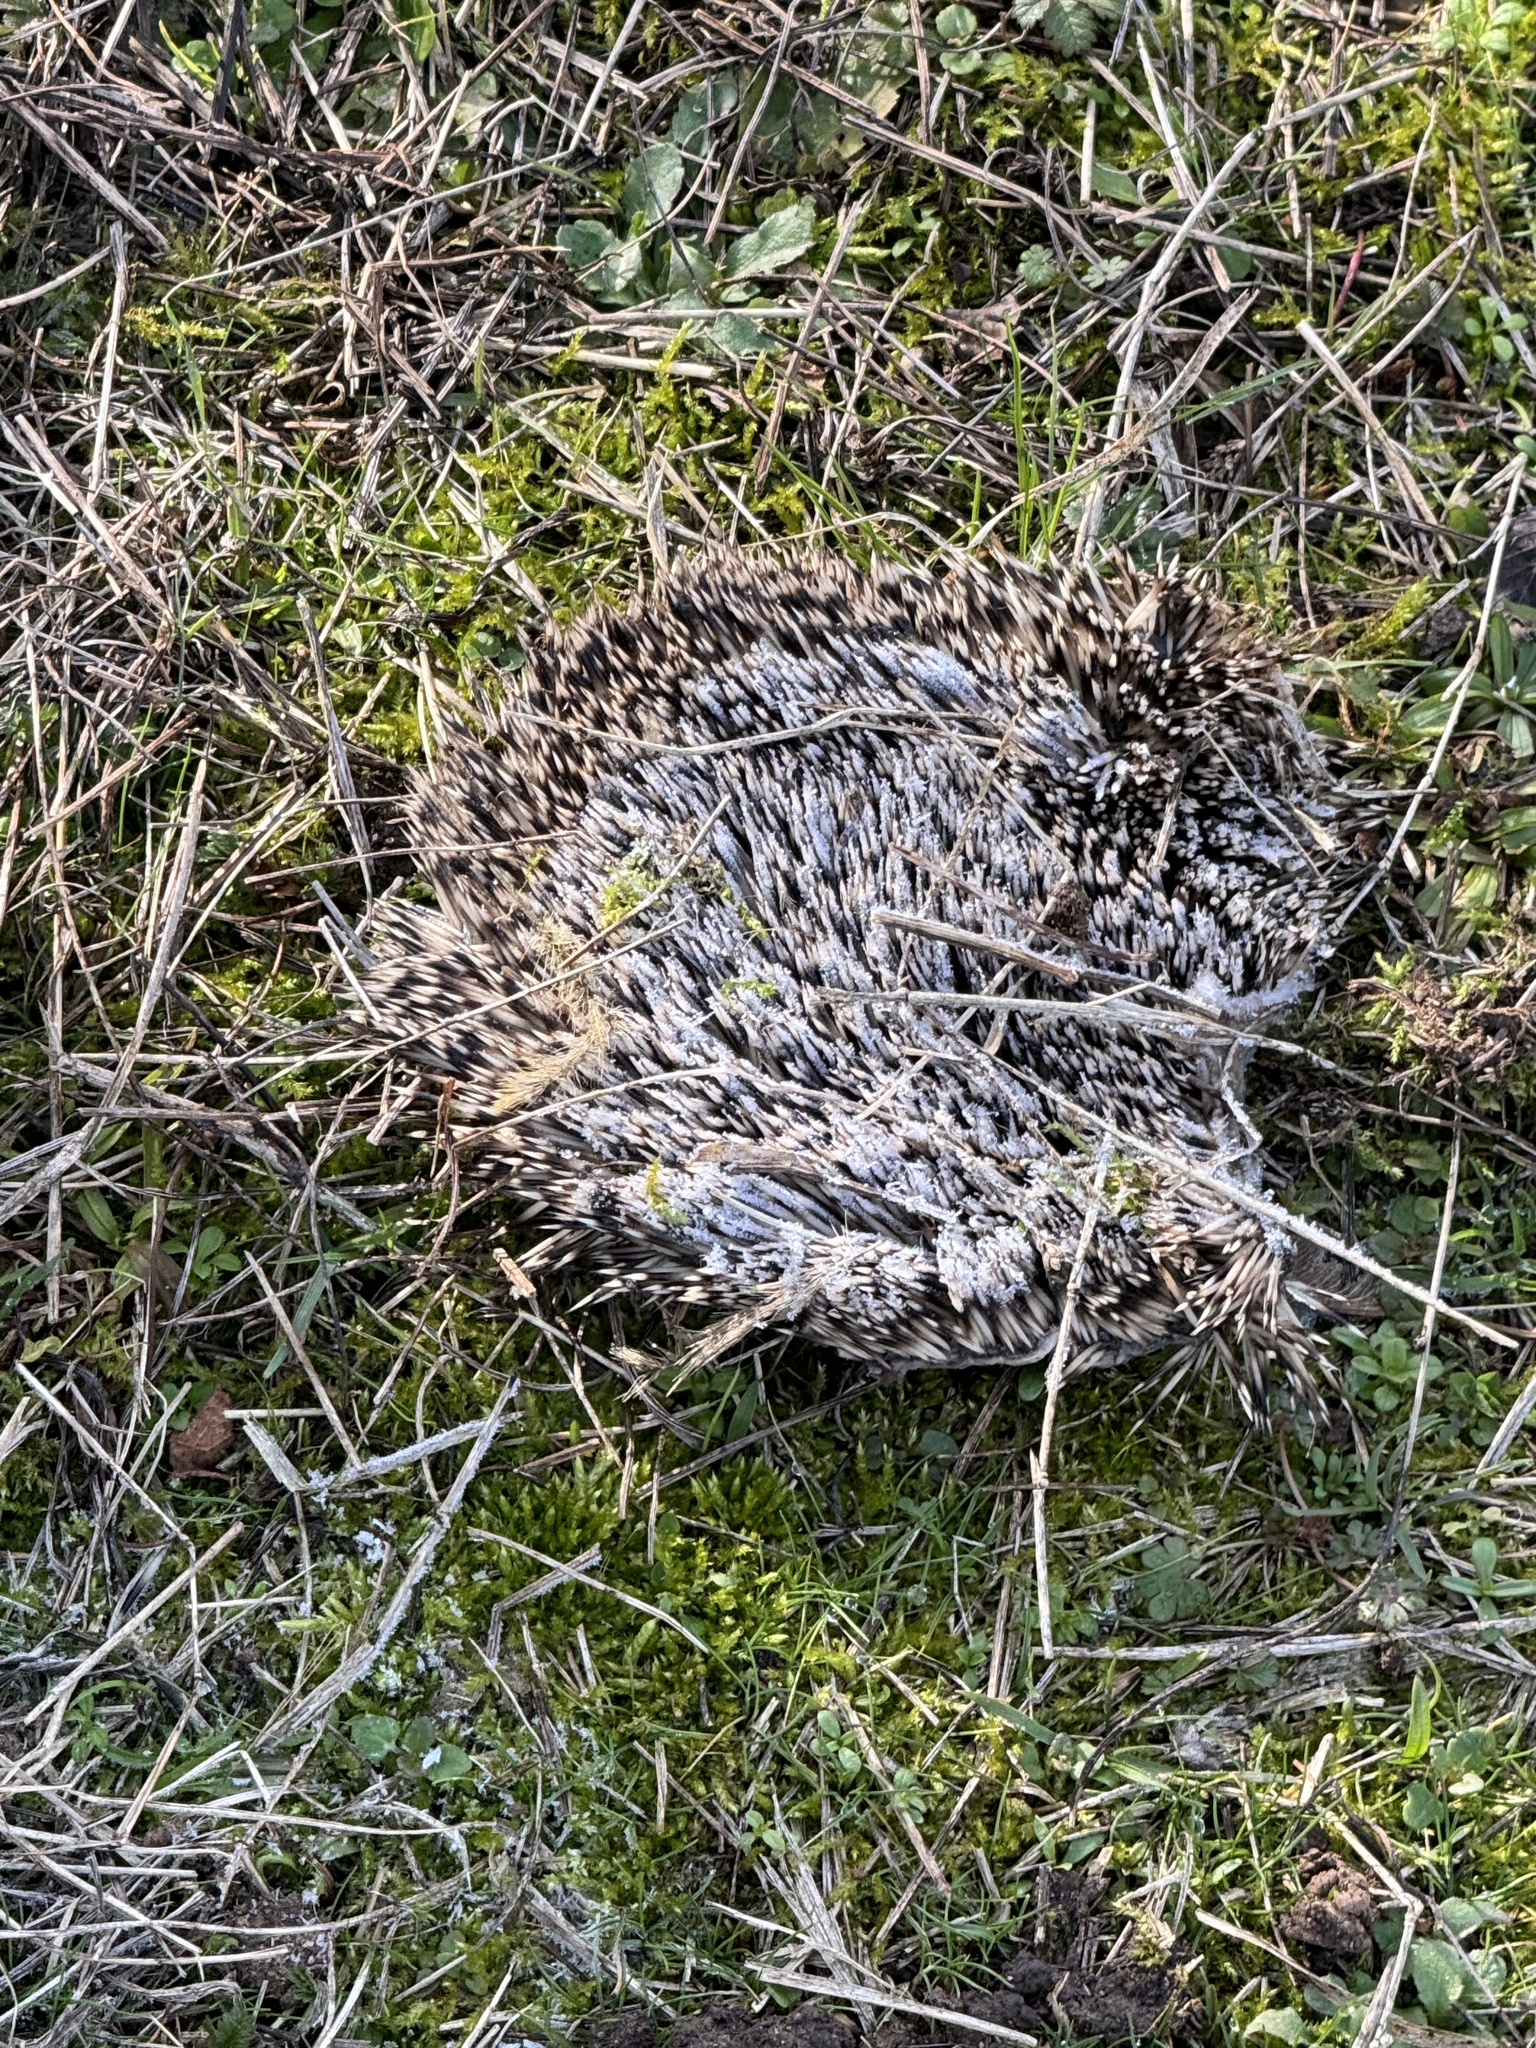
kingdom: Animalia
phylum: Chordata
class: Mammalia
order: Erinaceomorpha
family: Erinaceidae
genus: Erinaceus
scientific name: Erinaceus europaeus
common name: West european hedgehog
